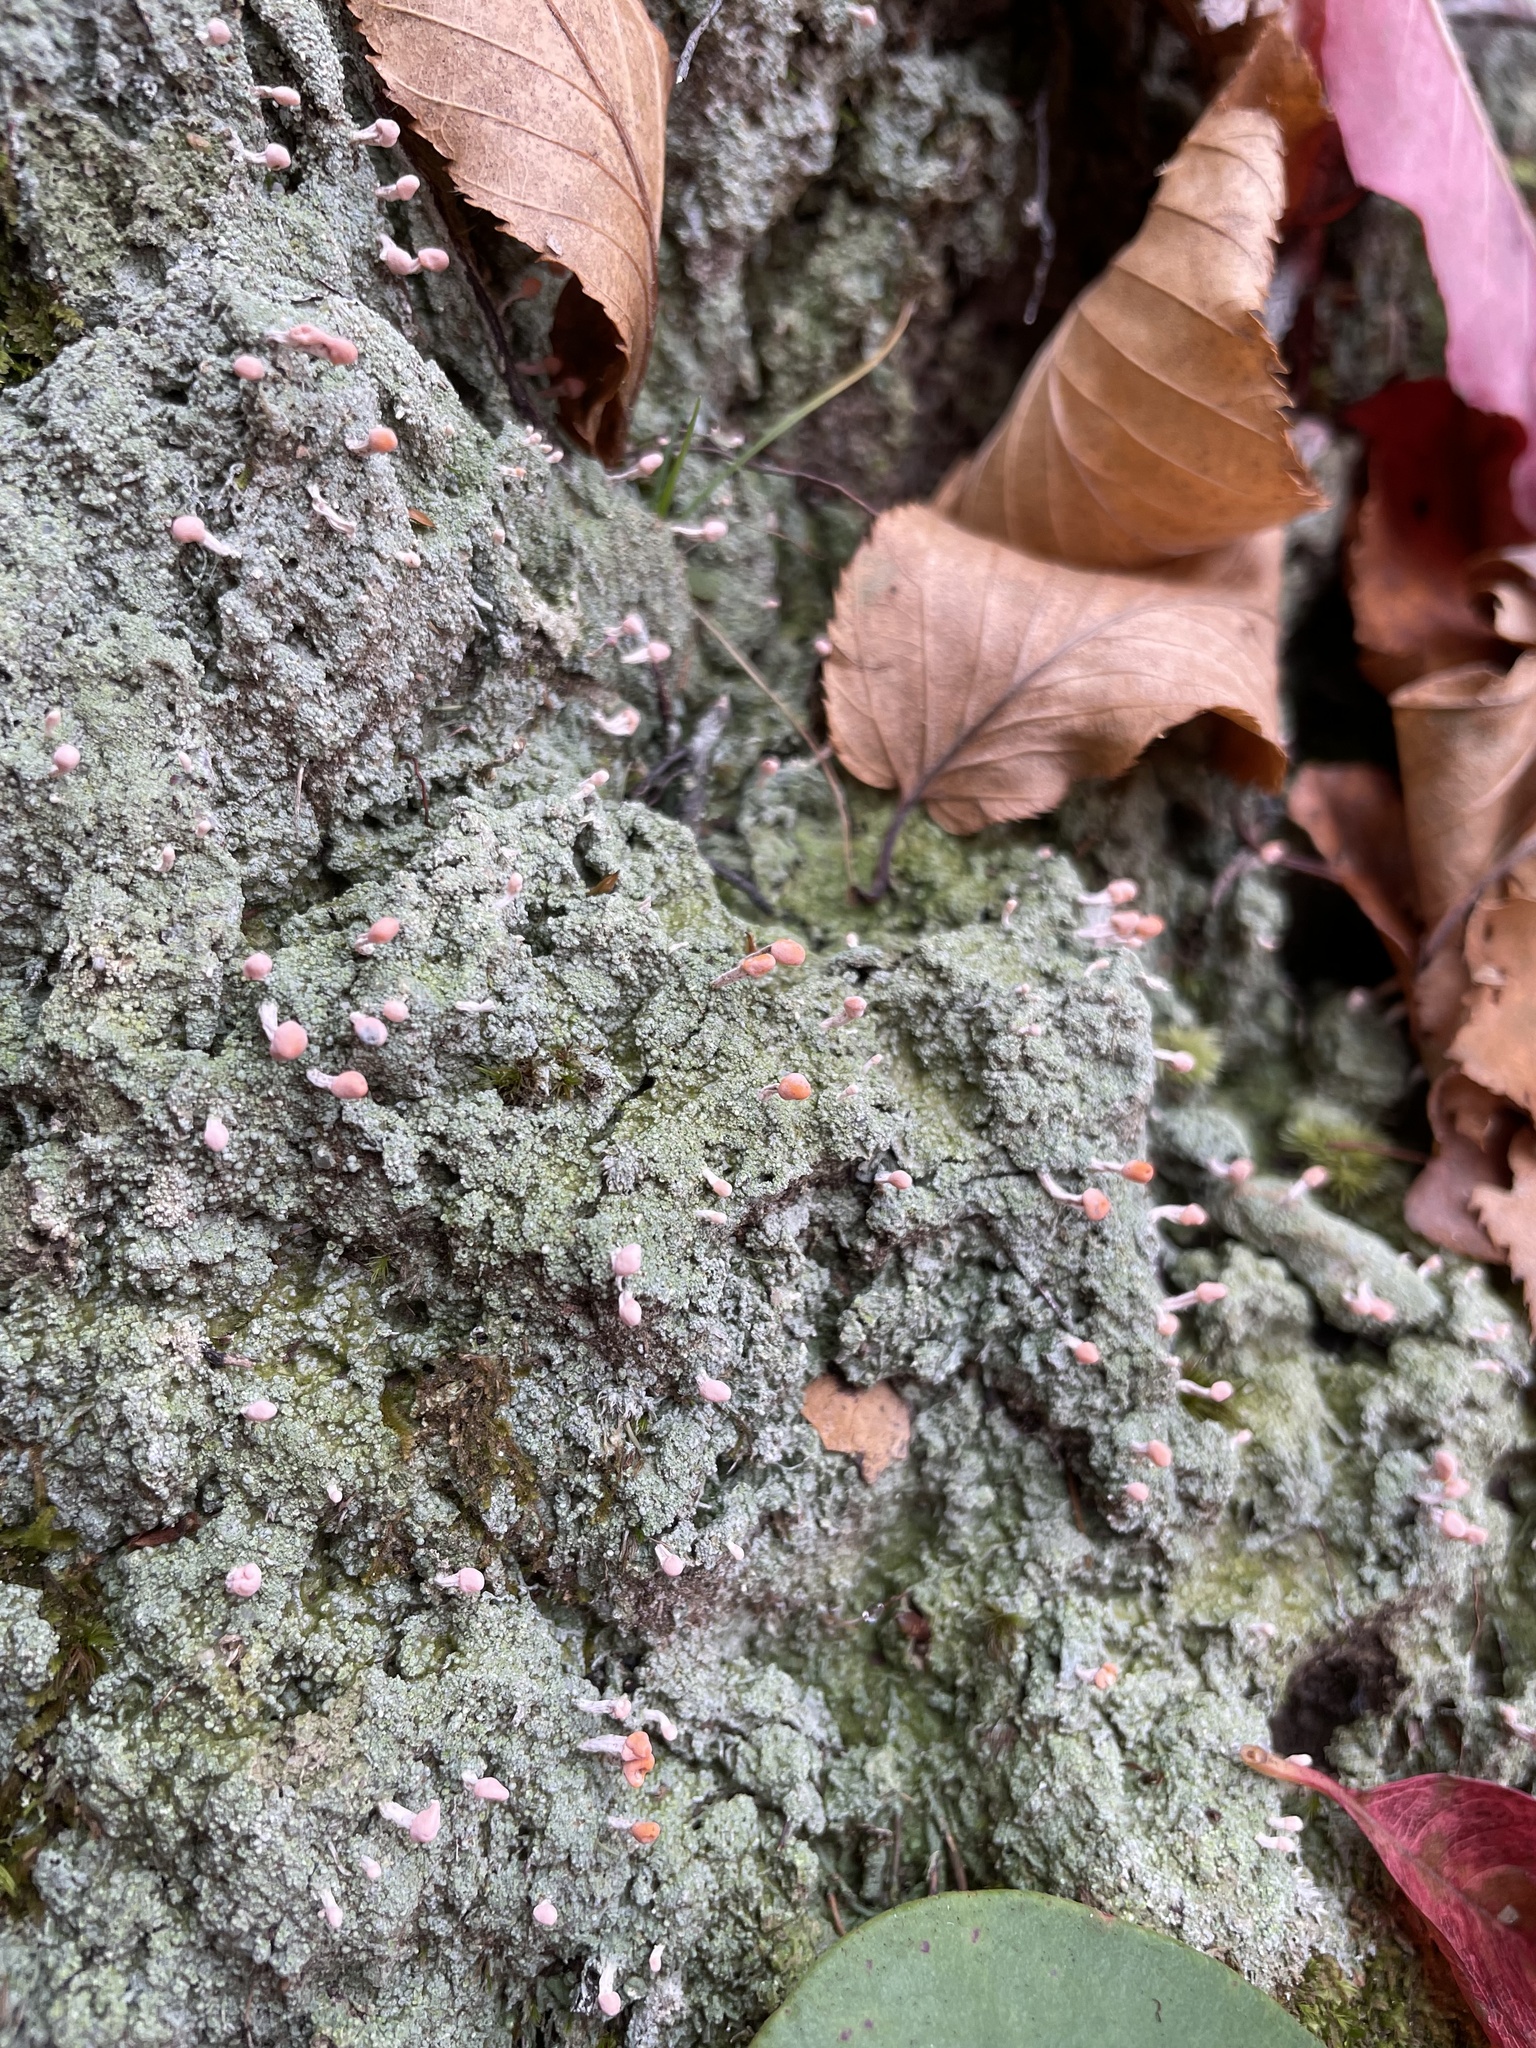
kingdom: Fungi
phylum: Ascomycota
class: Lecanoromycetes
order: Pertusariales
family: Icmadophilaceae
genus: Dibaeis
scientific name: Dibaeis baeomyces
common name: Pink earth lichen
